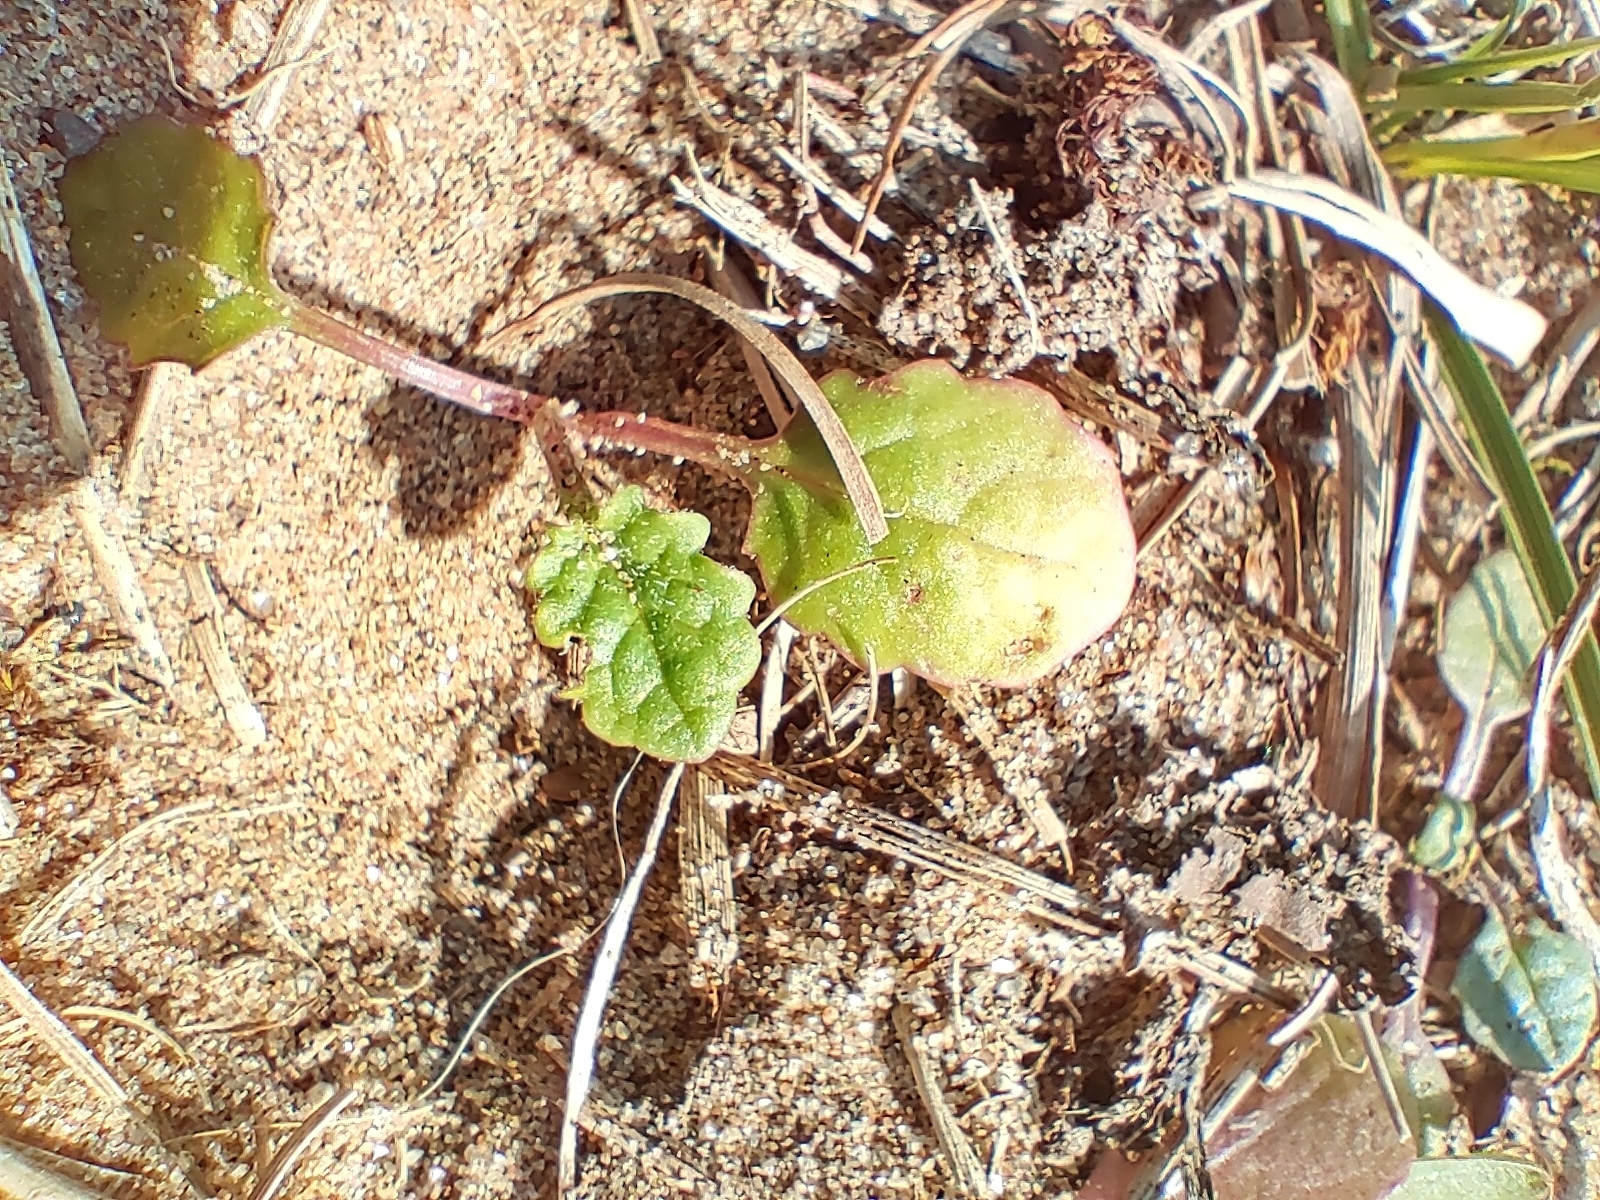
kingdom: Plantae
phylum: Tracheophyta
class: Magnoliopsida
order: Asterales
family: Asteraceae
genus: Jacobaea
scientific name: Jacobaea vulgaris
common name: Stinking willie
